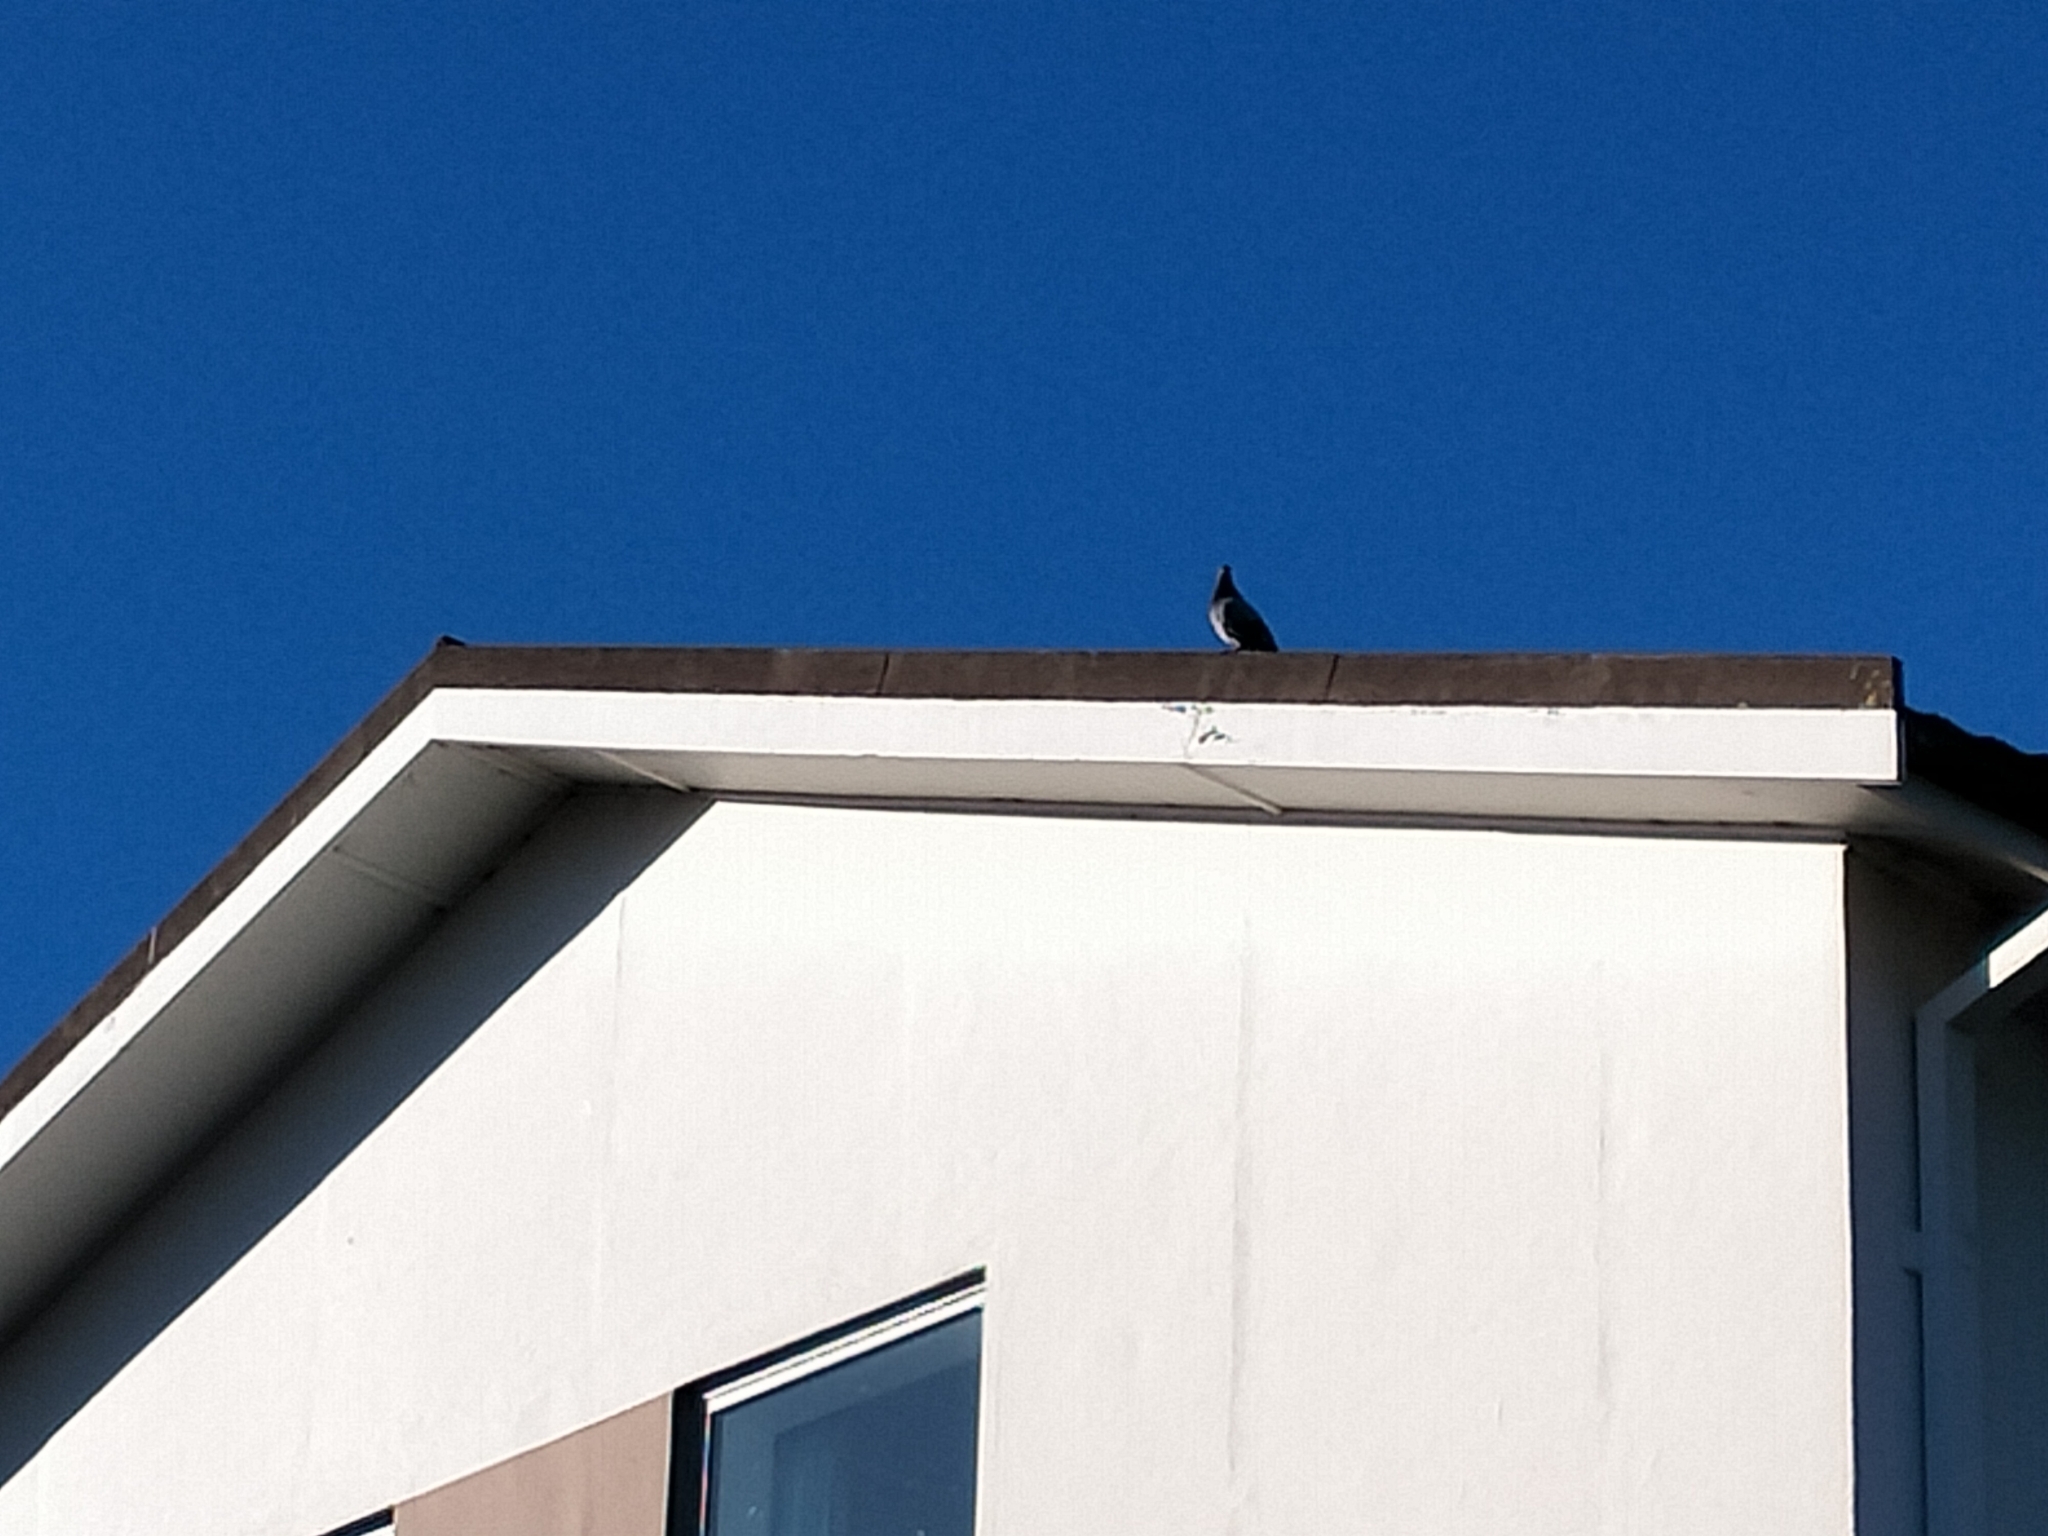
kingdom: Animalia
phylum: Chordata
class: Aves
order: Columbiformes
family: Columbidae
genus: Columba
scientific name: Columba livia
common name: Rock pigeon
